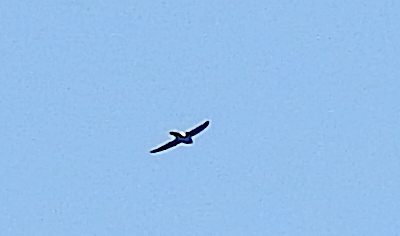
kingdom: Animalia
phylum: Chordata
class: Aves
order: Apodiformes
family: Apodidae
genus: Apus
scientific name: Apus affinis
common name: Little swift
